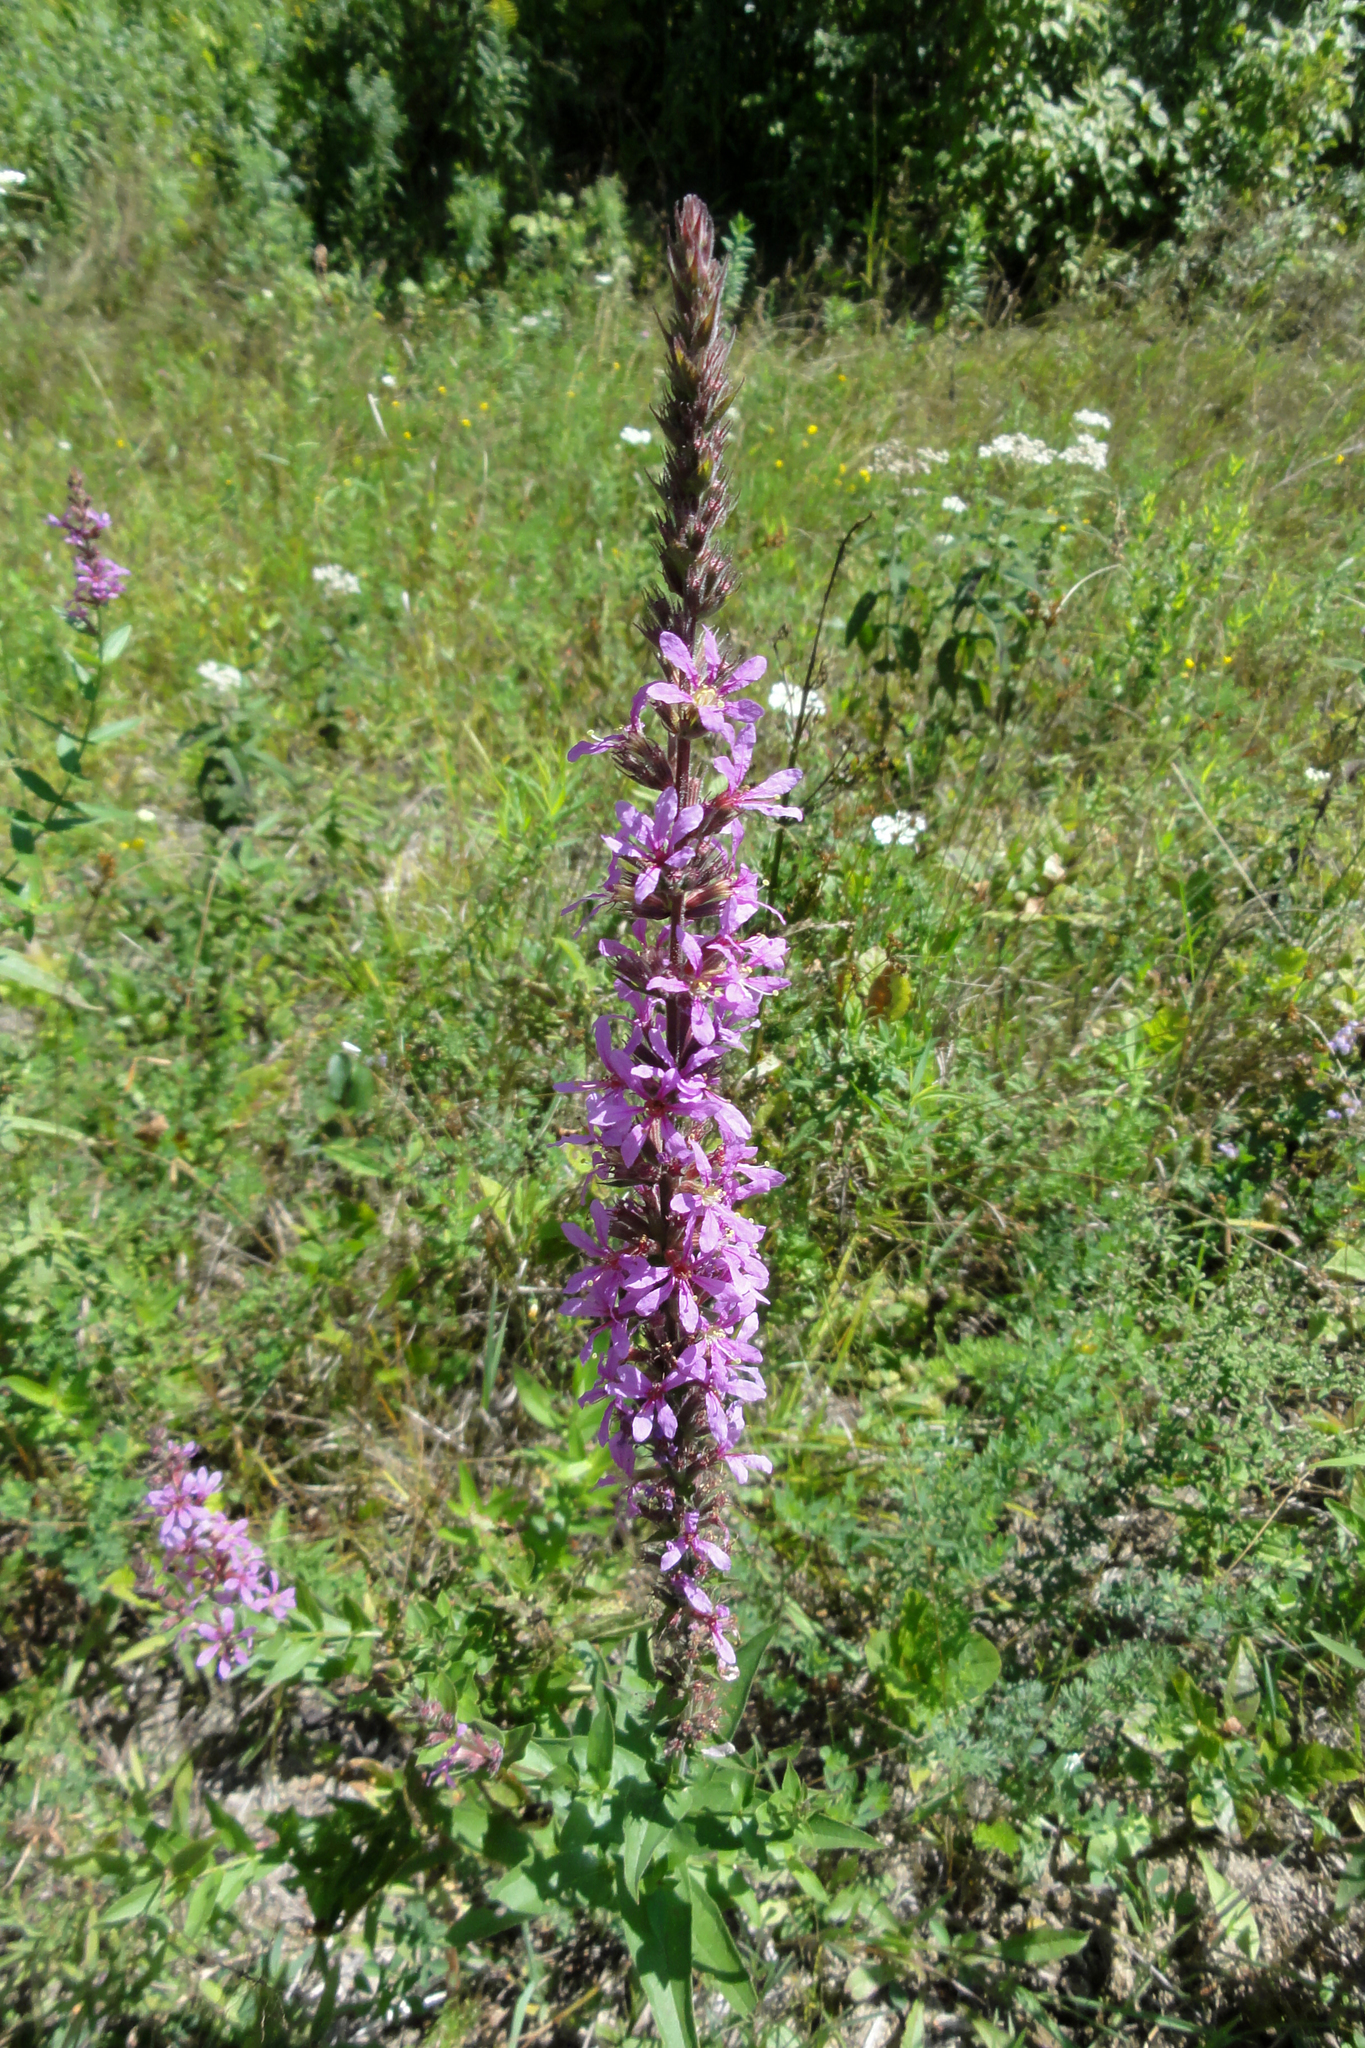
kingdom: Plantae
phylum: Tracheophyta
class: Magnoliopsida
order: Myrtales
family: Lythraceae
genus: Lythrum
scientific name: Lythrum salicaria
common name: Purple loosestrife
